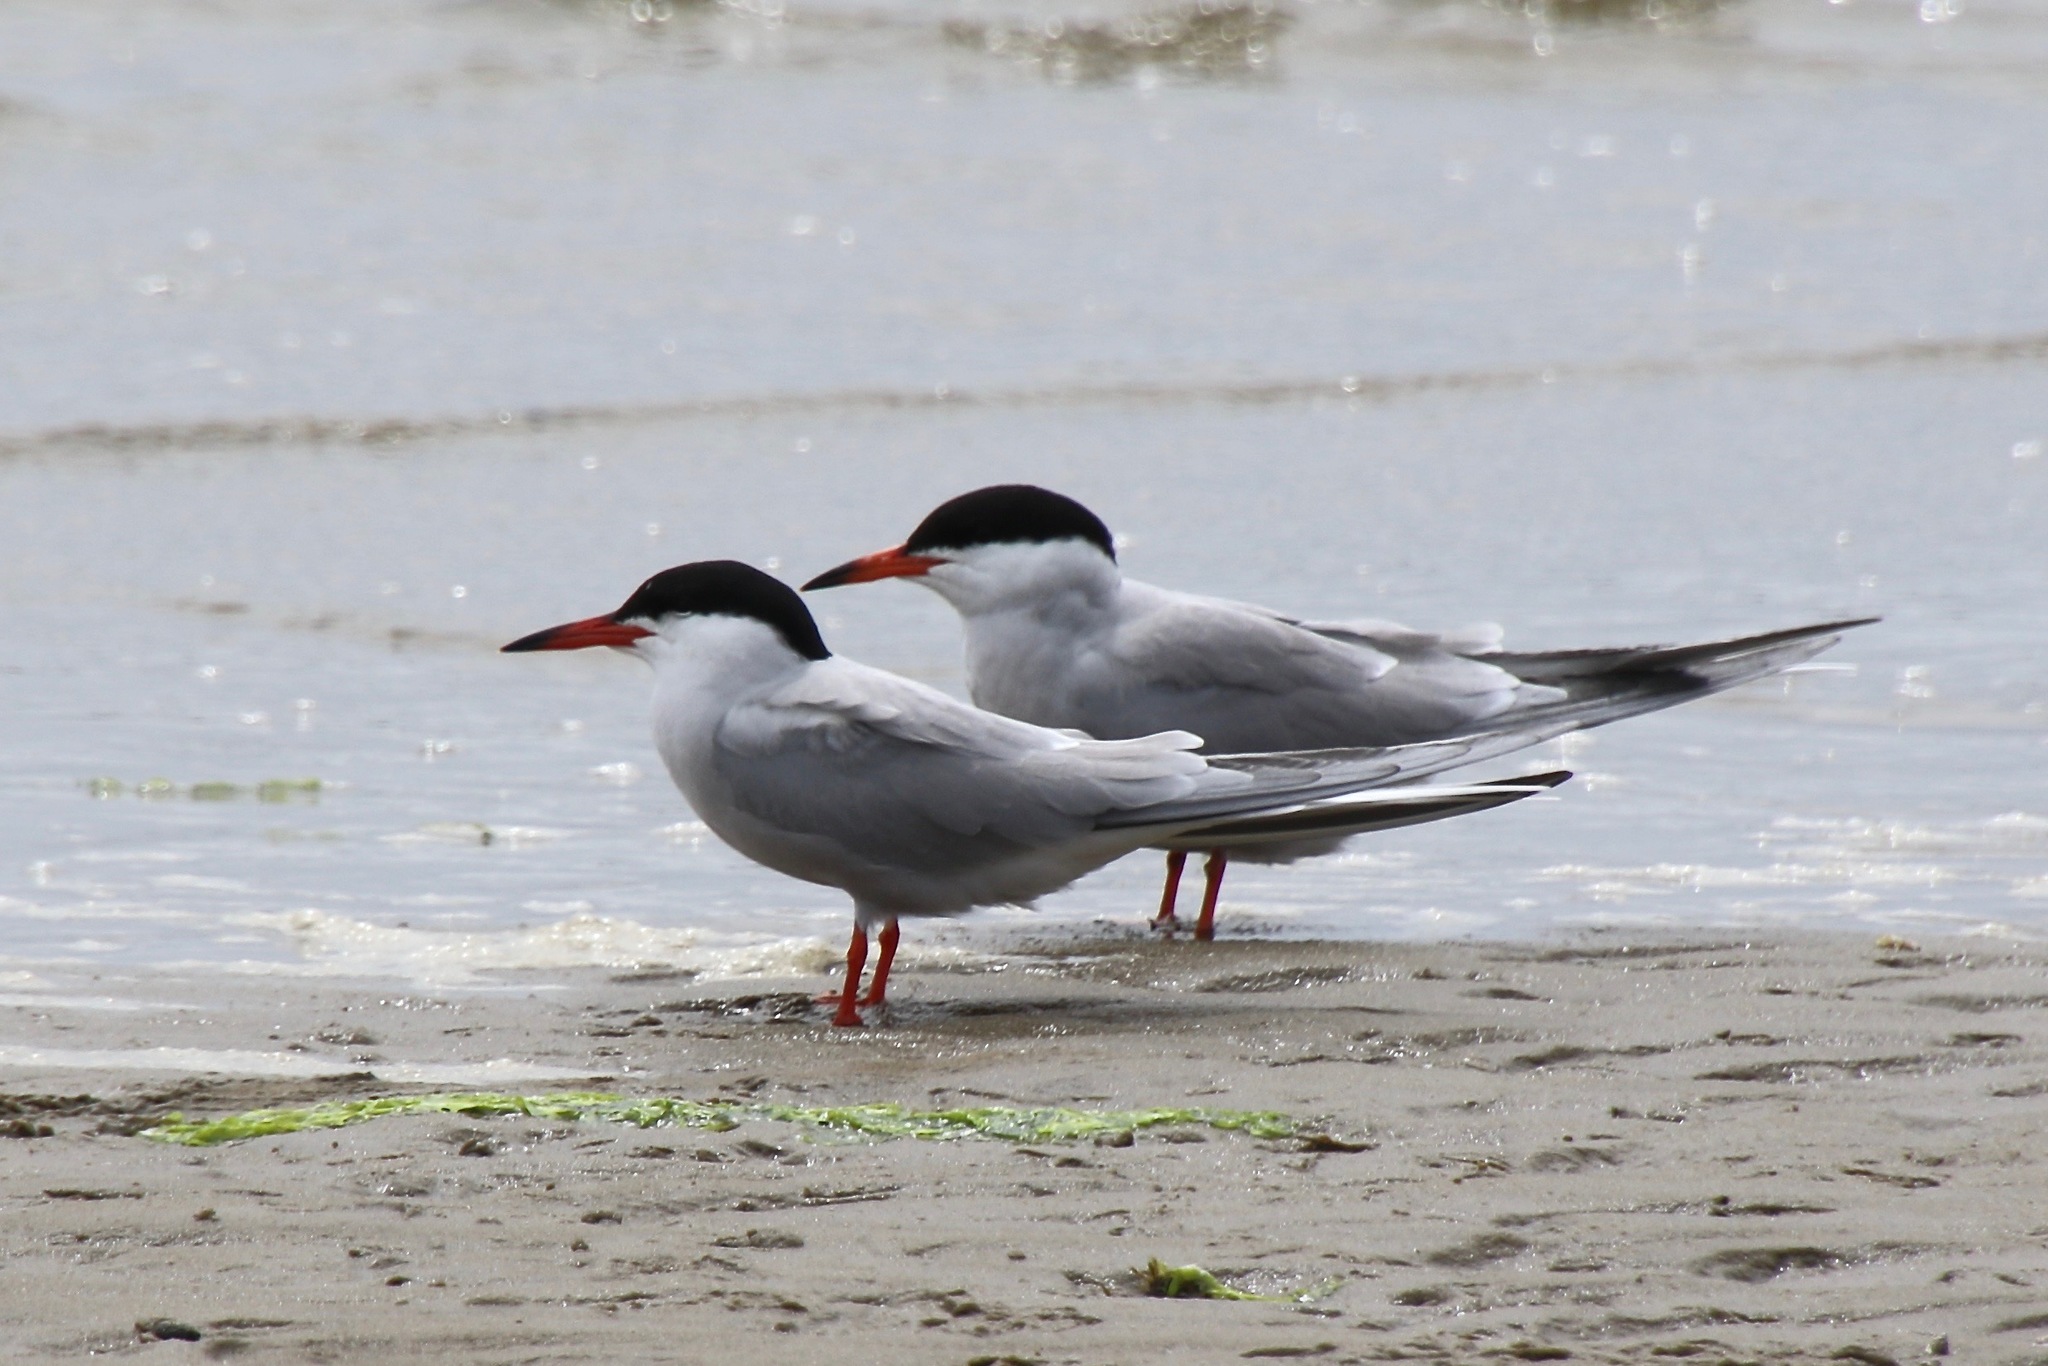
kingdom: Animalia
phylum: Chordata
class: Aves
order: Charadriiformes
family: Laridae
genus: Sterna
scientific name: Sterna hirundo
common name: Common tern
